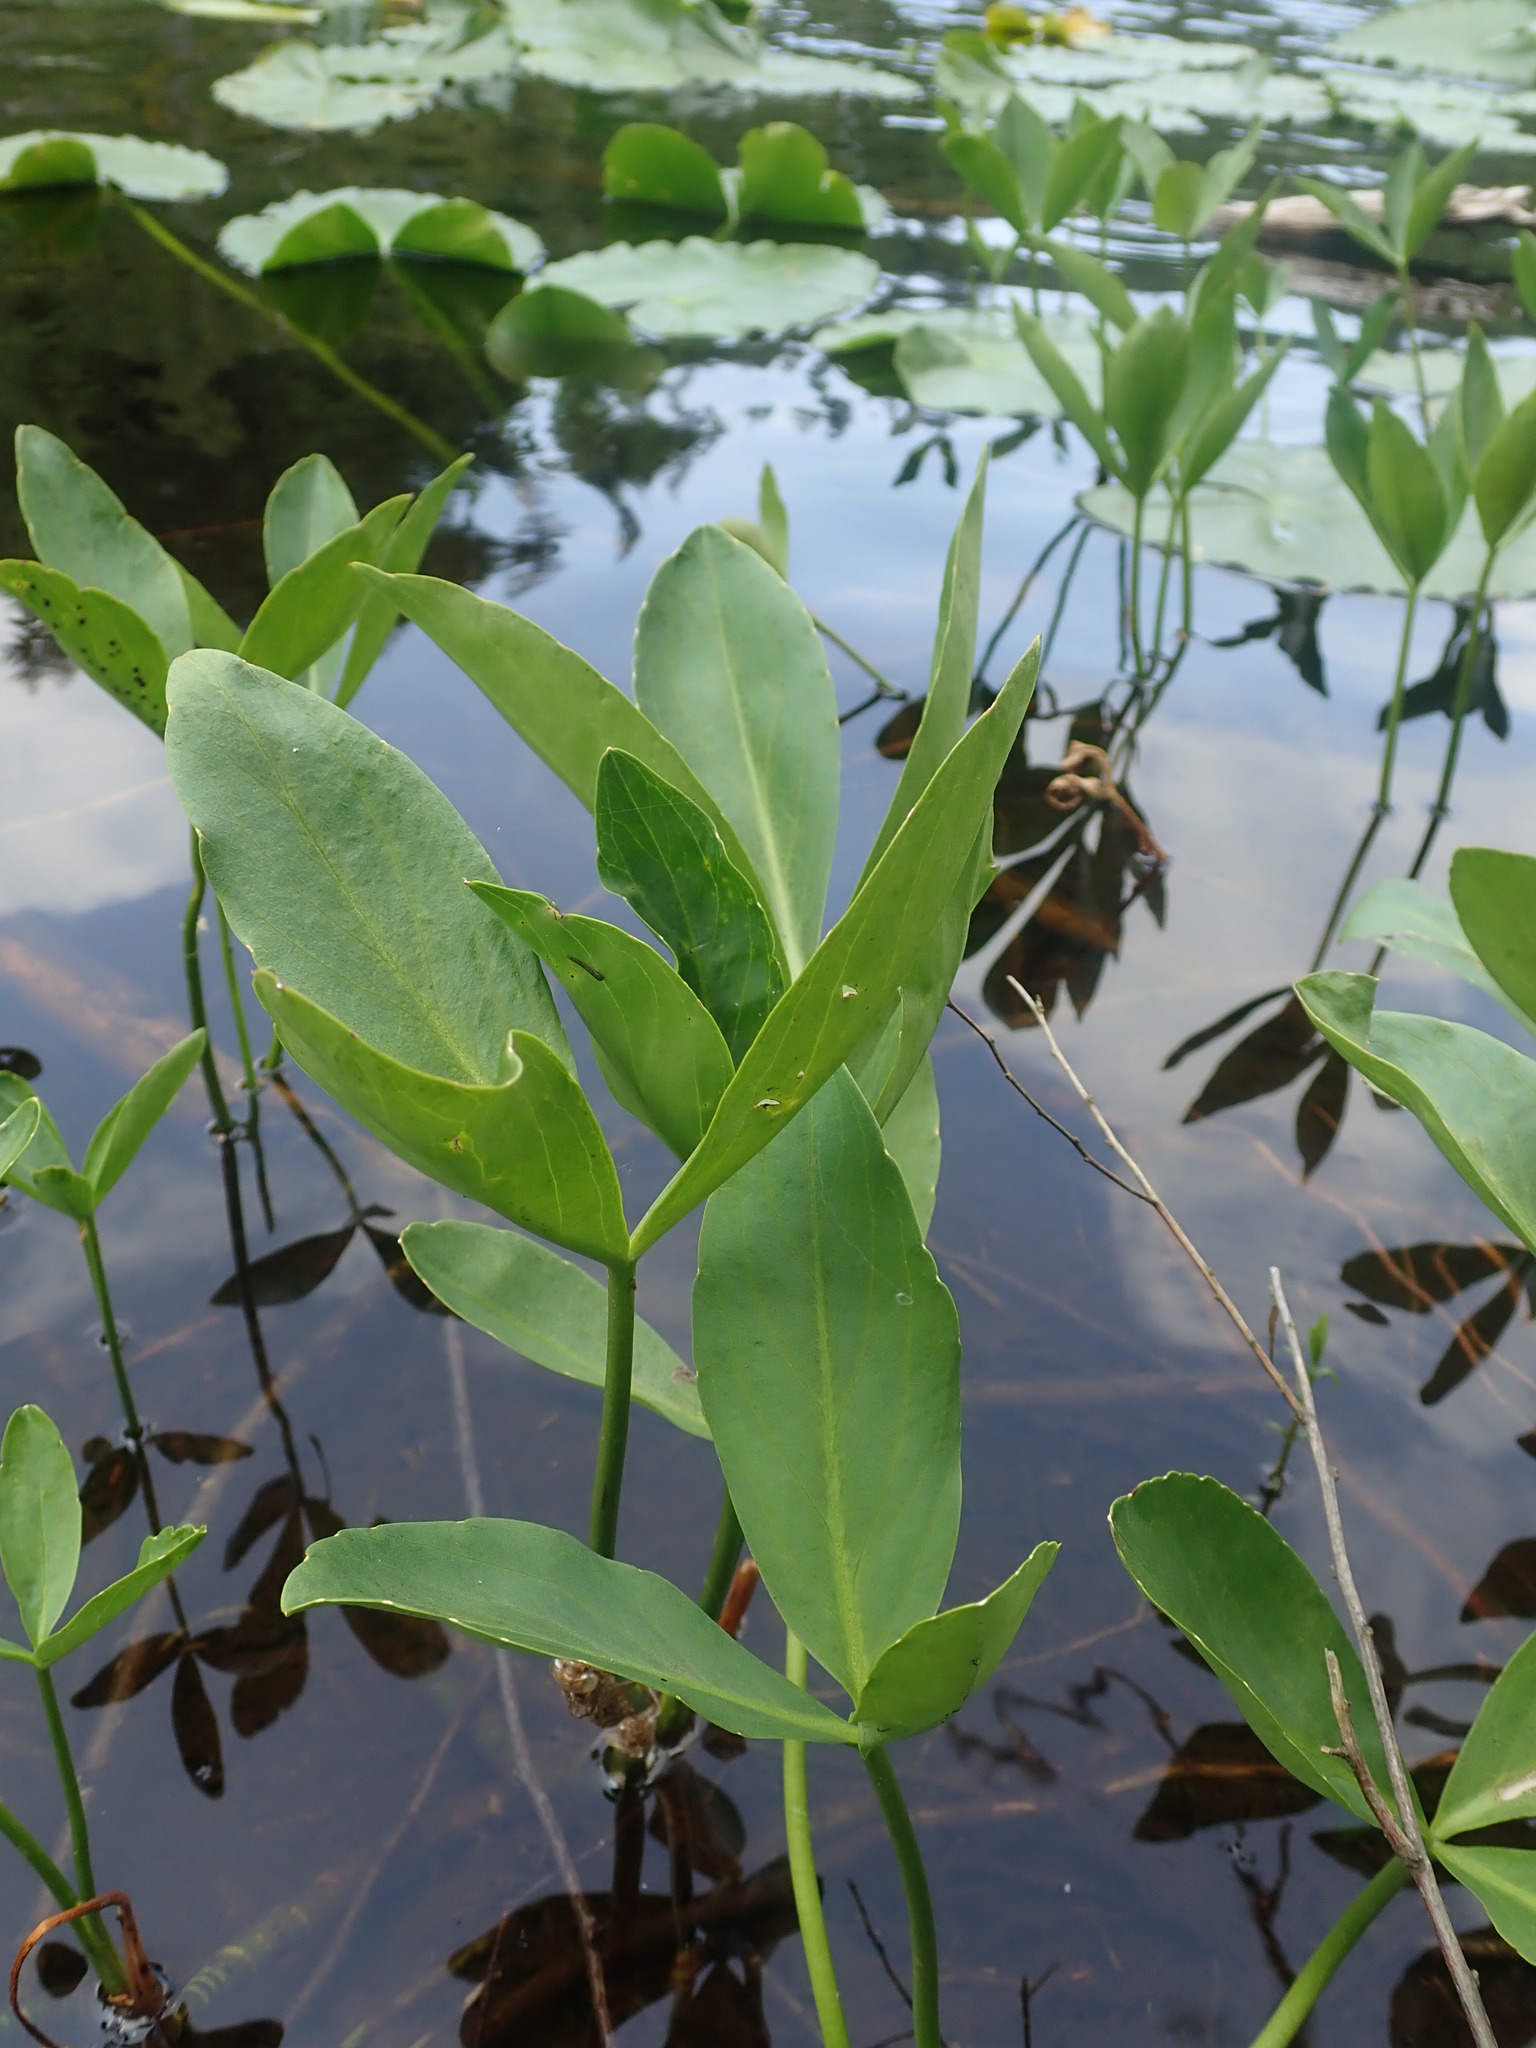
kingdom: Plantae
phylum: Tracheophyta
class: Magnoliopsida
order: Asterales
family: Menyanthaceae
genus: Menyanthes
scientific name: Menyanthes trifoliata
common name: Bogbean
